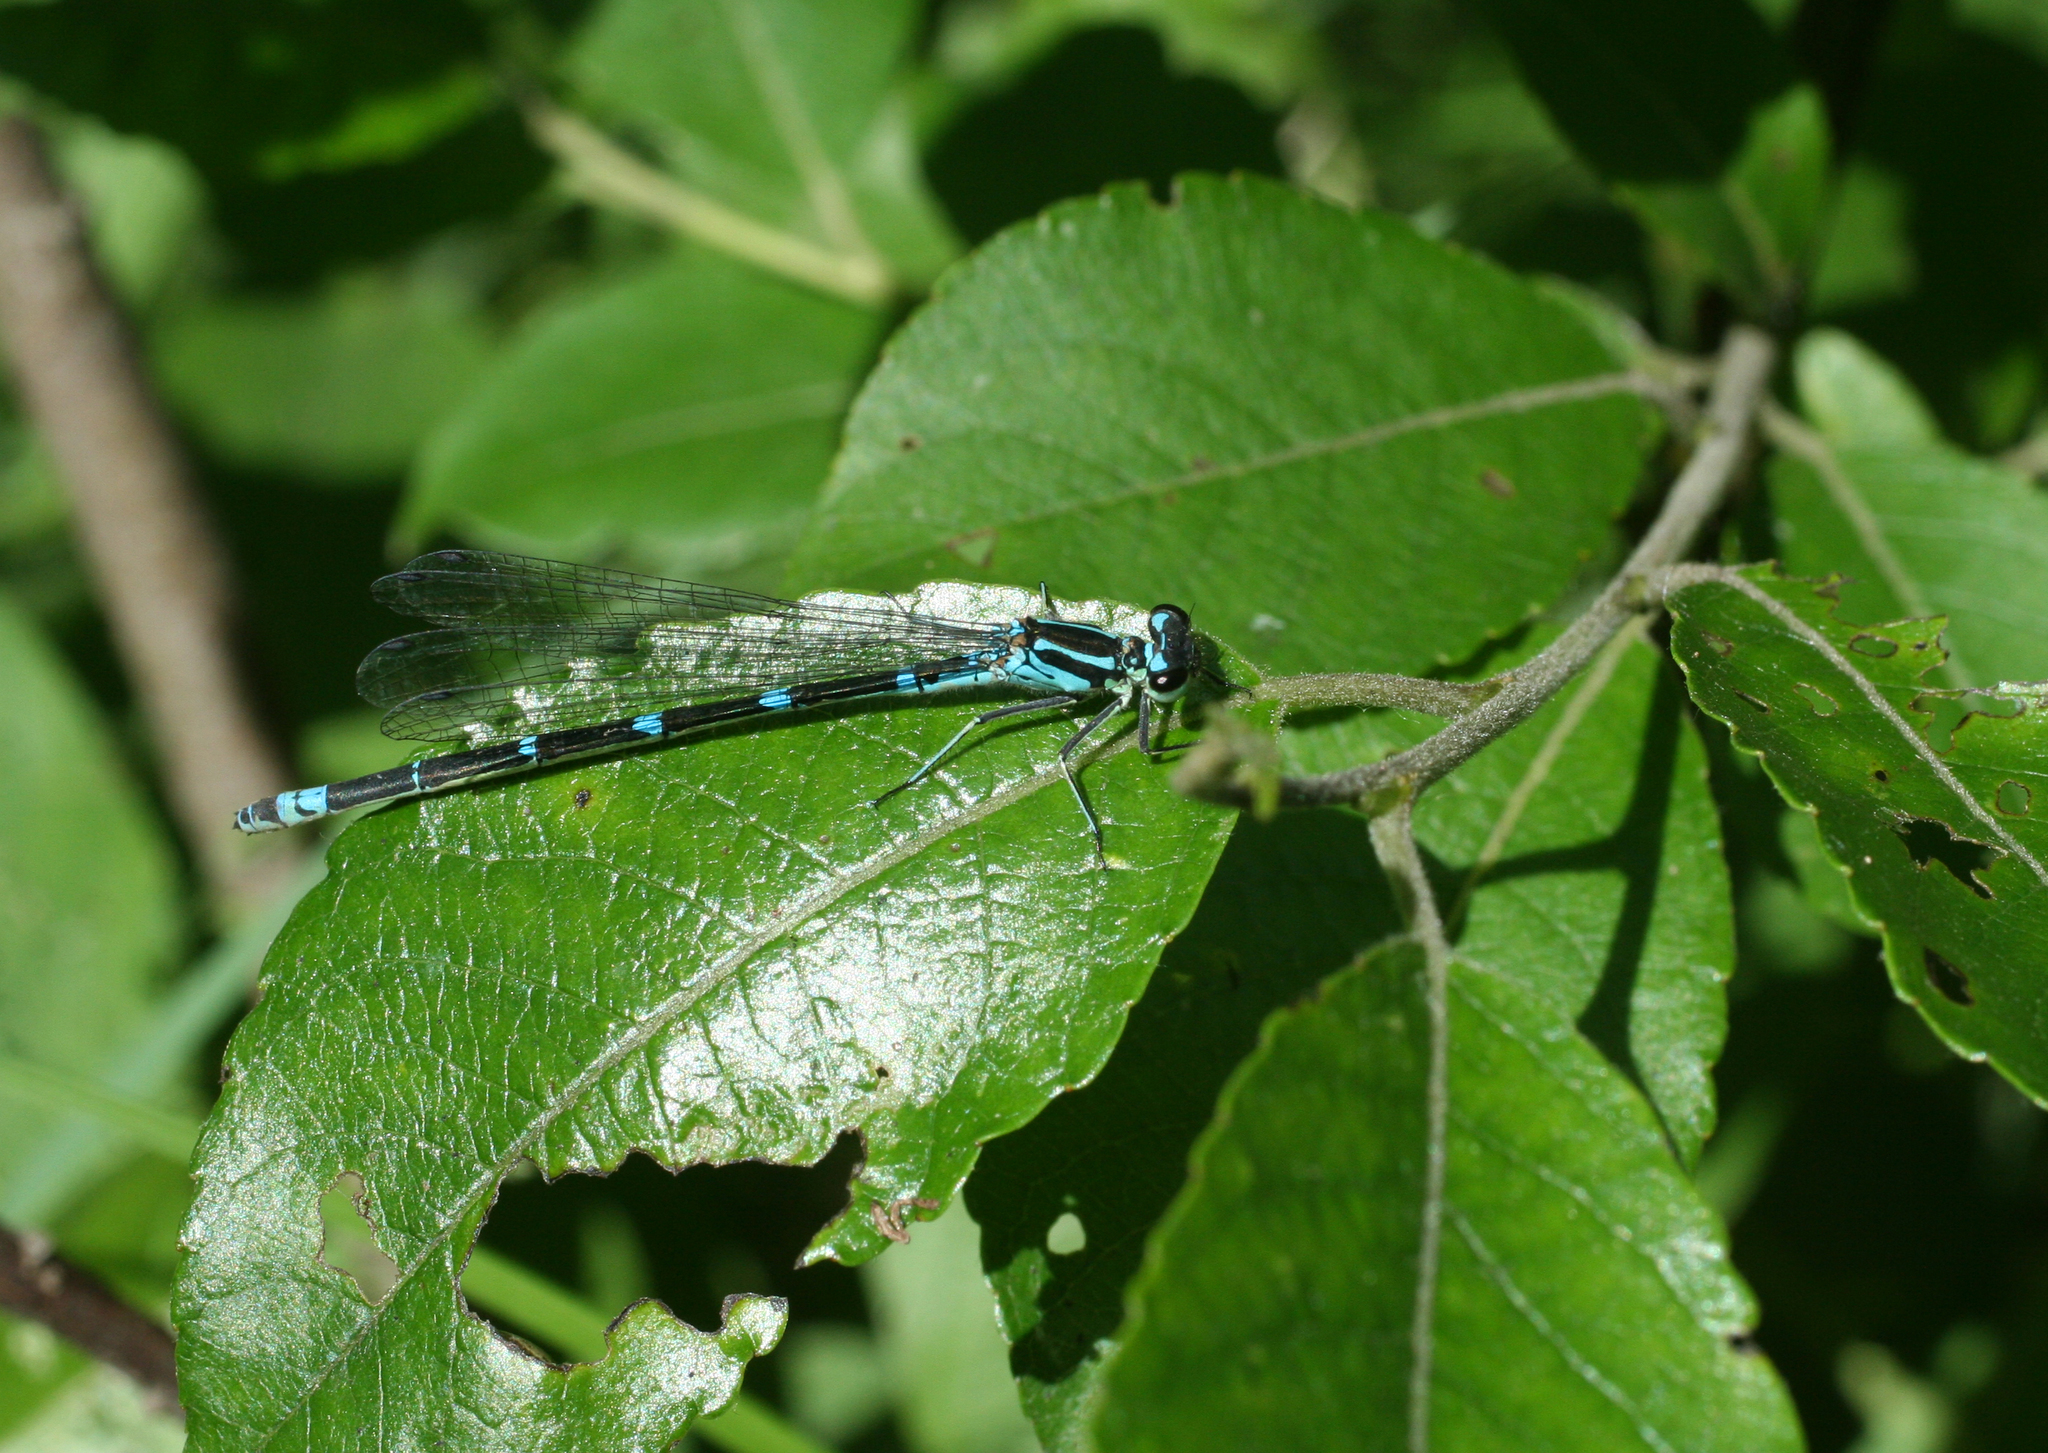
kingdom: Animalia
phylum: Arthropoda
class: Insecta
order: Odonata
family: Coenagrionidae
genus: Coenagrion
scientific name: Coenagrion pulchellum
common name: Variable bluet
